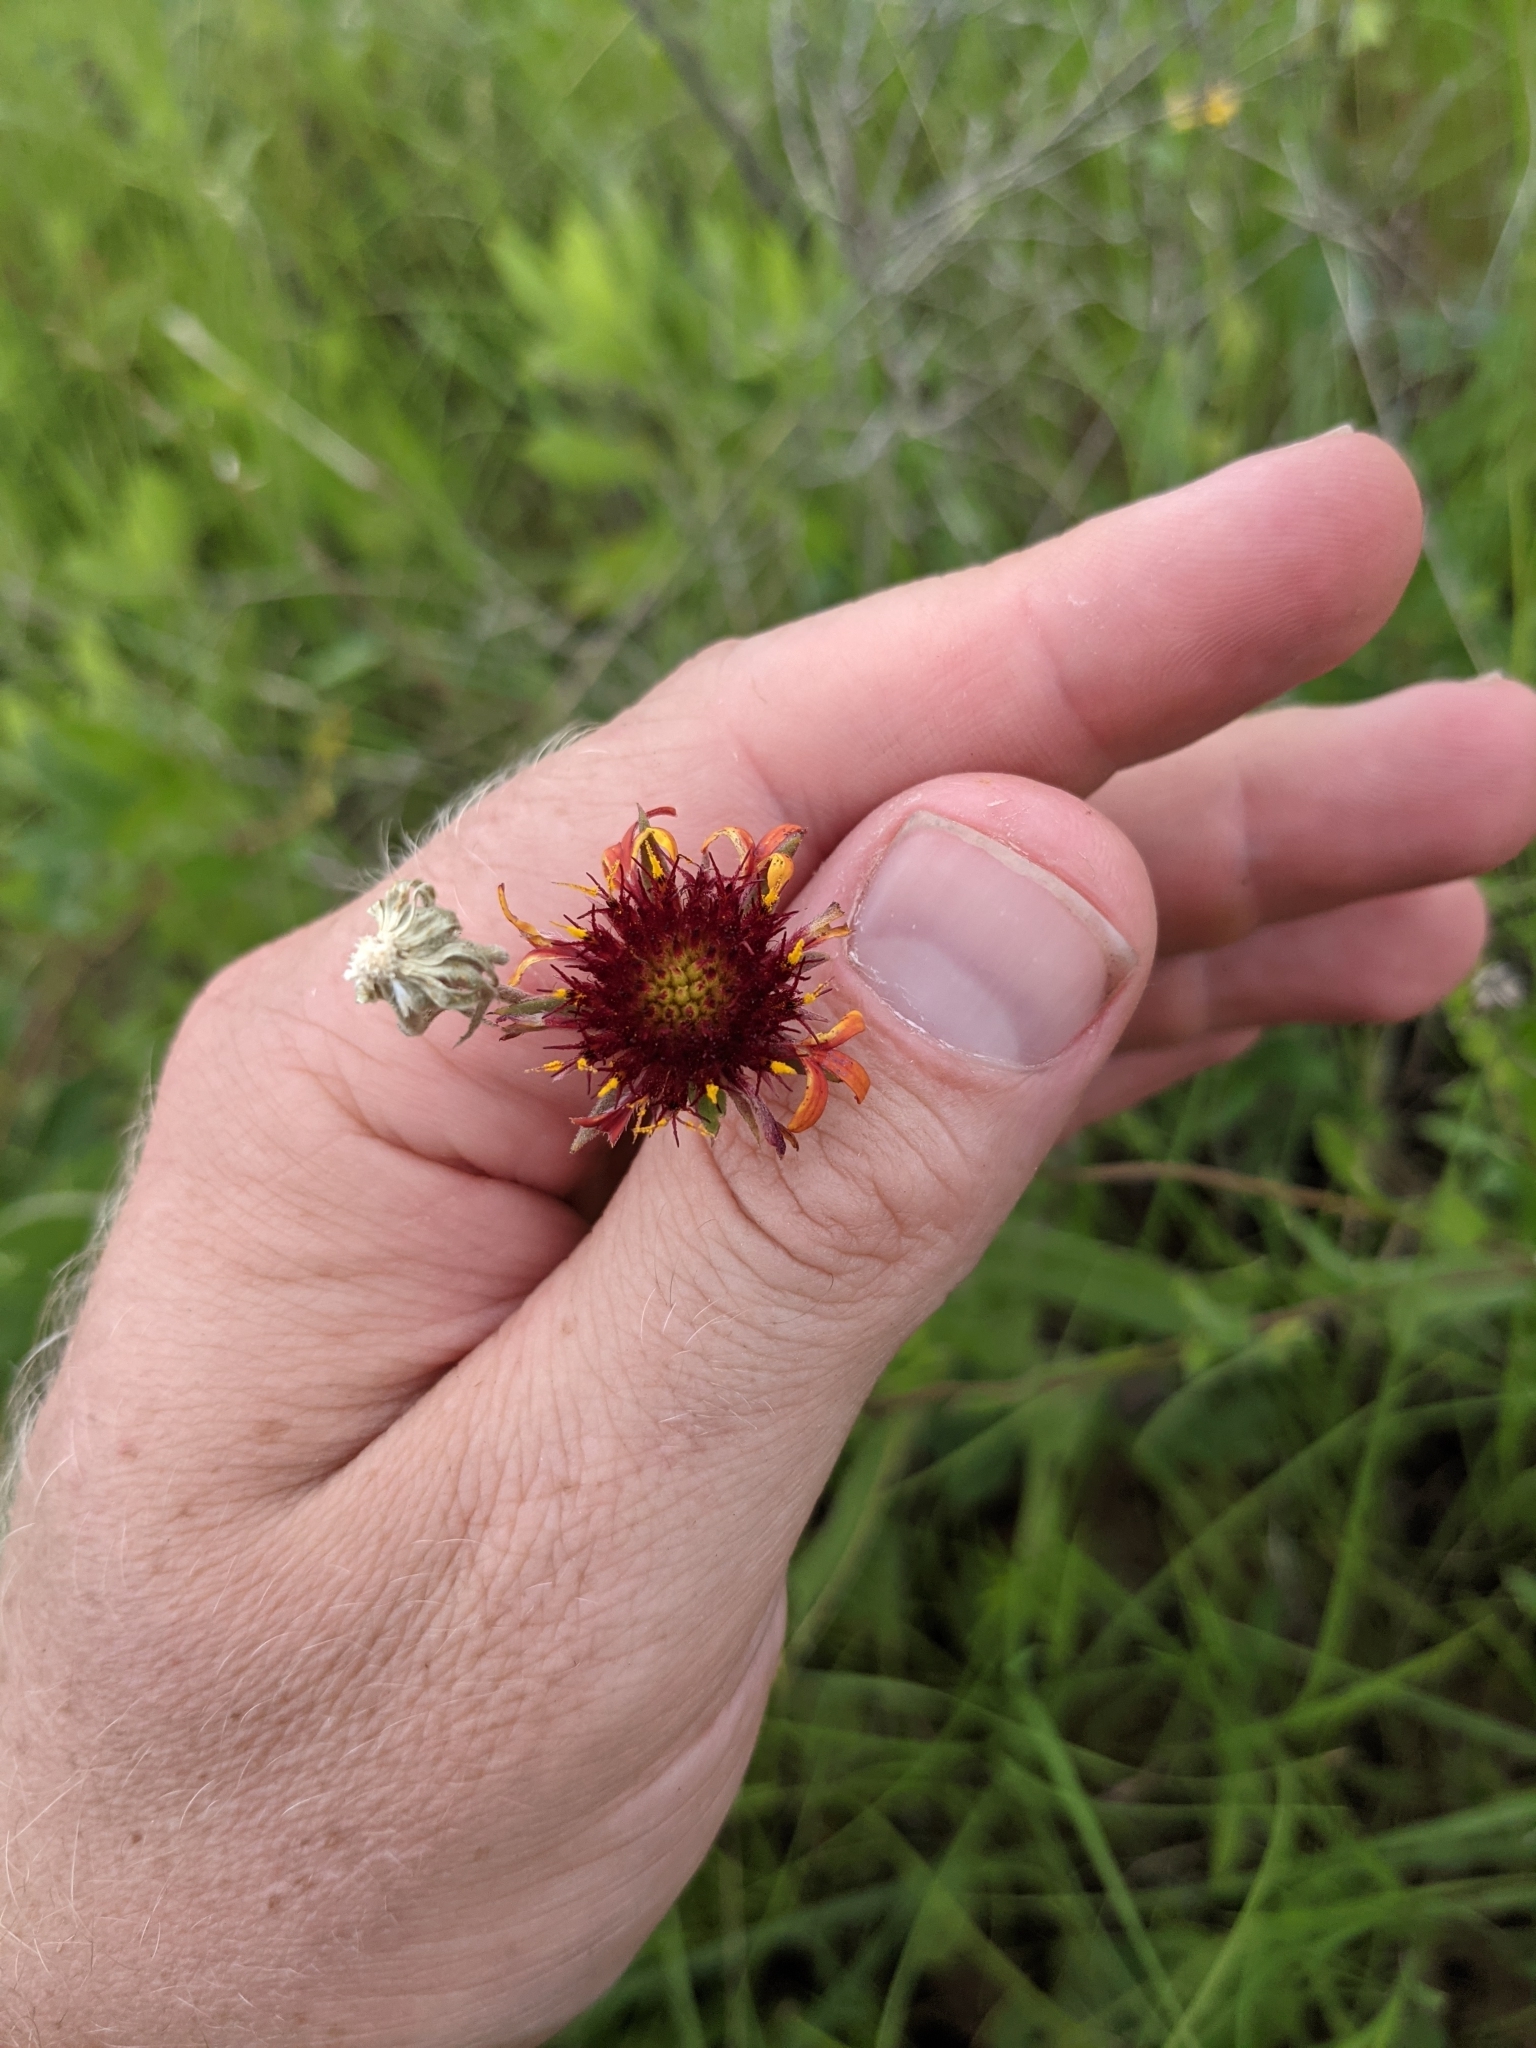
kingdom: Plantae
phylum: Tracheophyta
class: Magnoliopsida
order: Asterales
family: Asteraceae
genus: Gaillardia
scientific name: Gaillardia aestivalis
